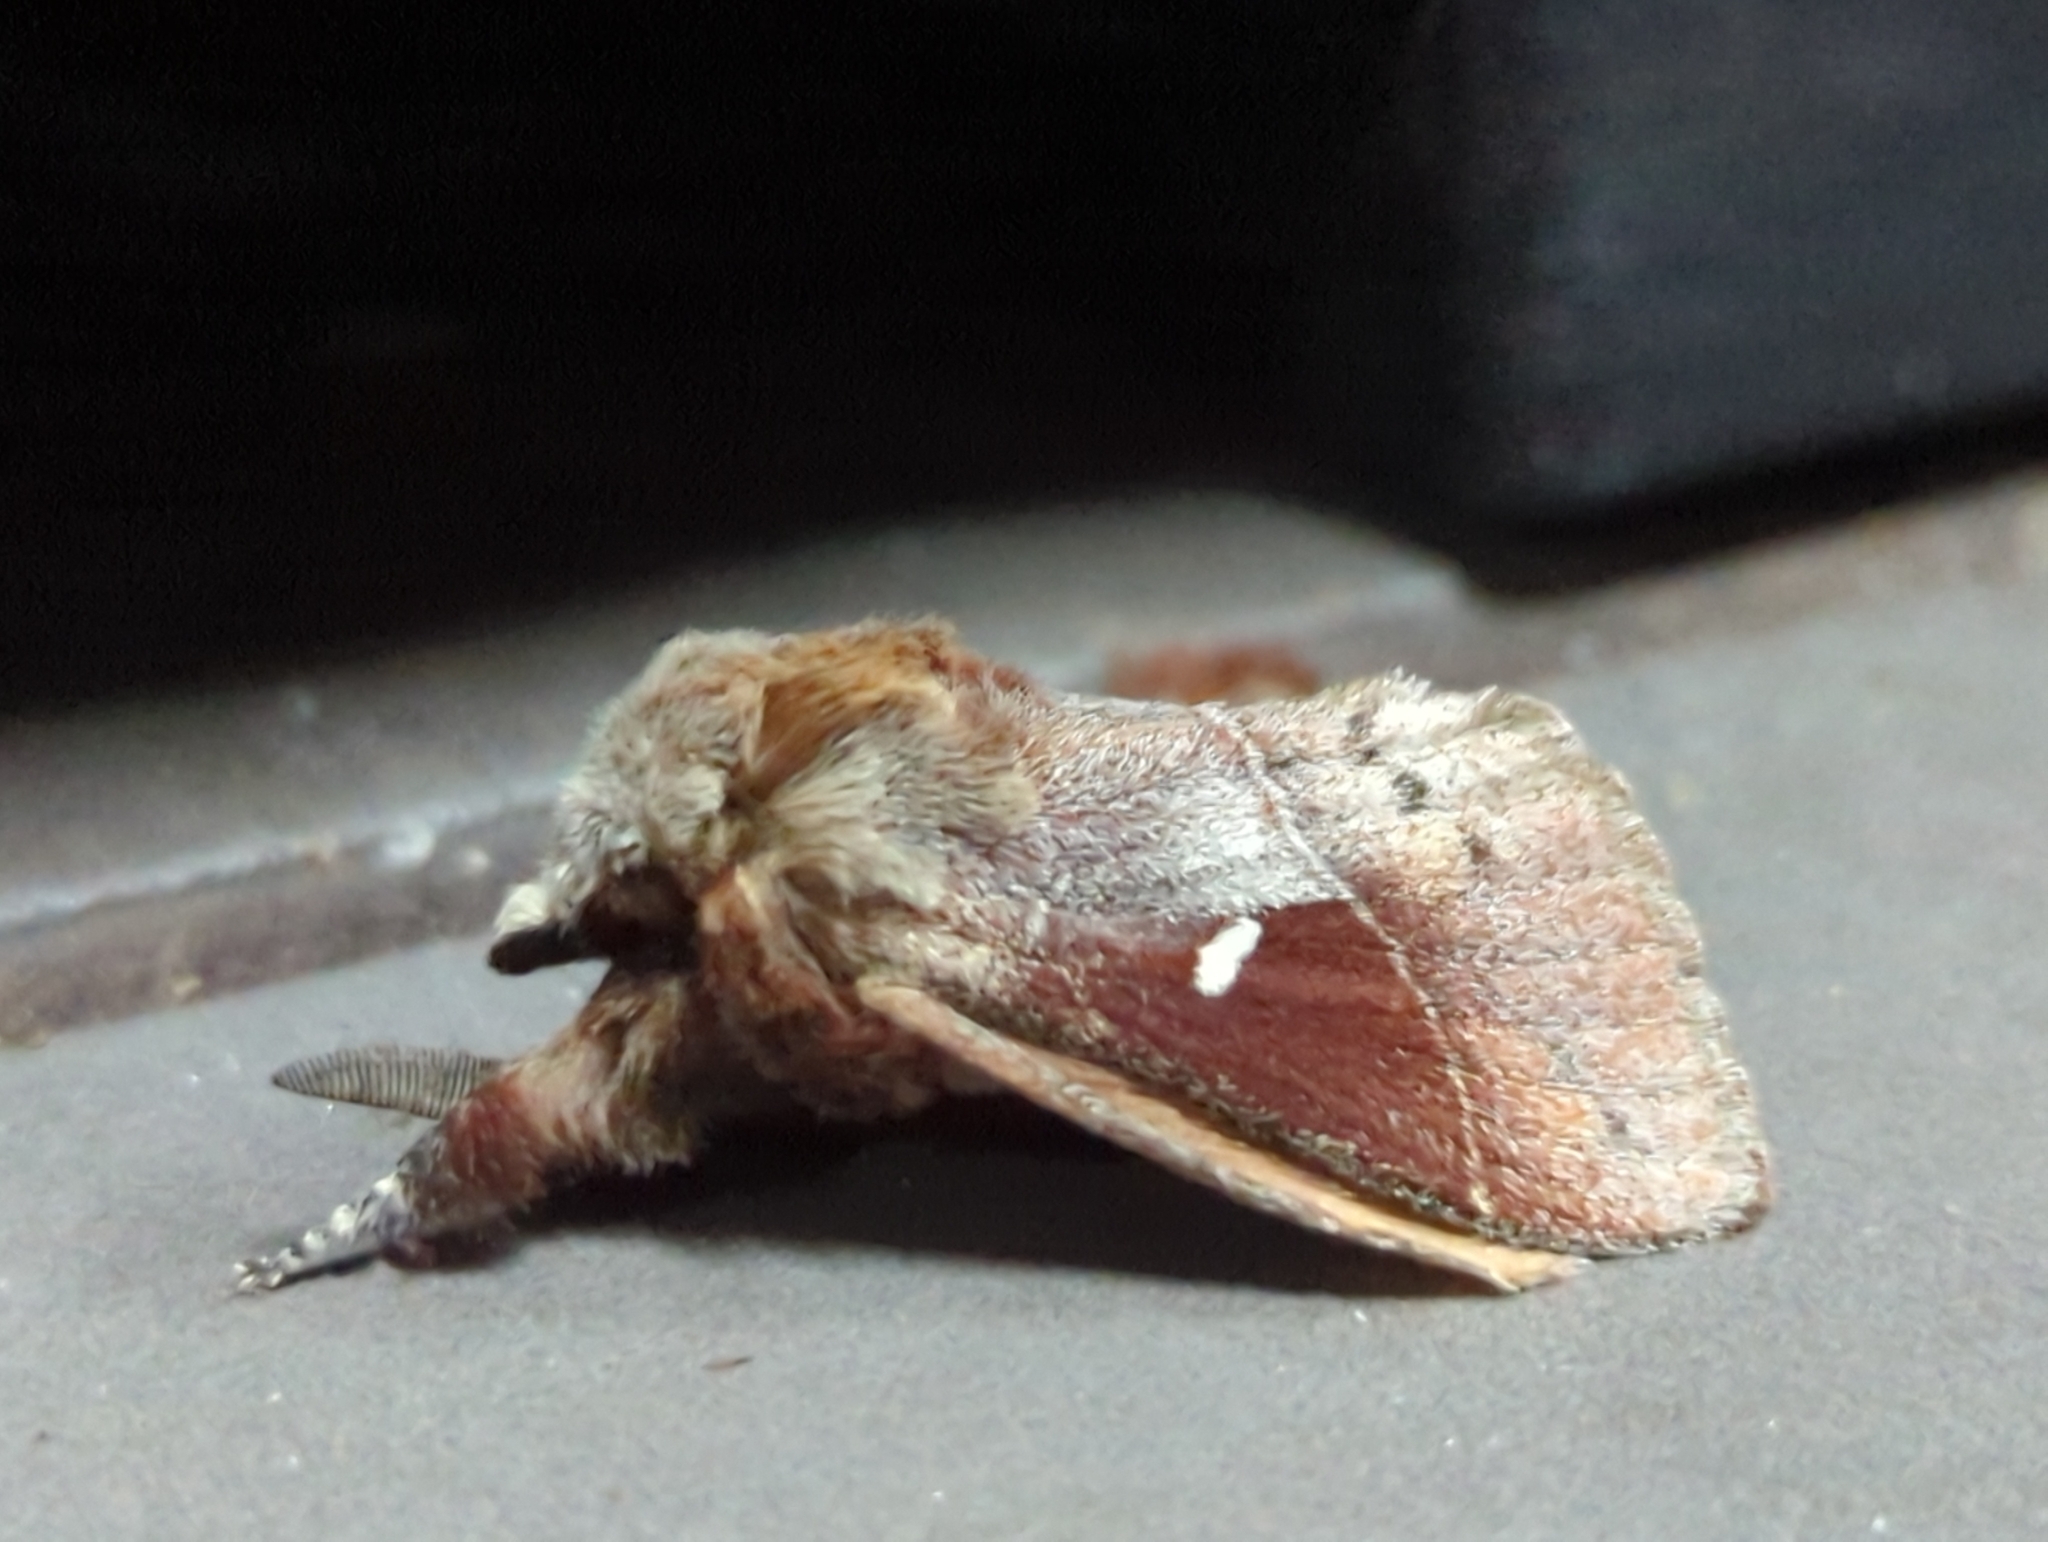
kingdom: Animalia
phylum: Arthropoda
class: Insecta
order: Lepidoptera
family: Lasiocampidae
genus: Opsirhina
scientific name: Opsirhina albigutta
